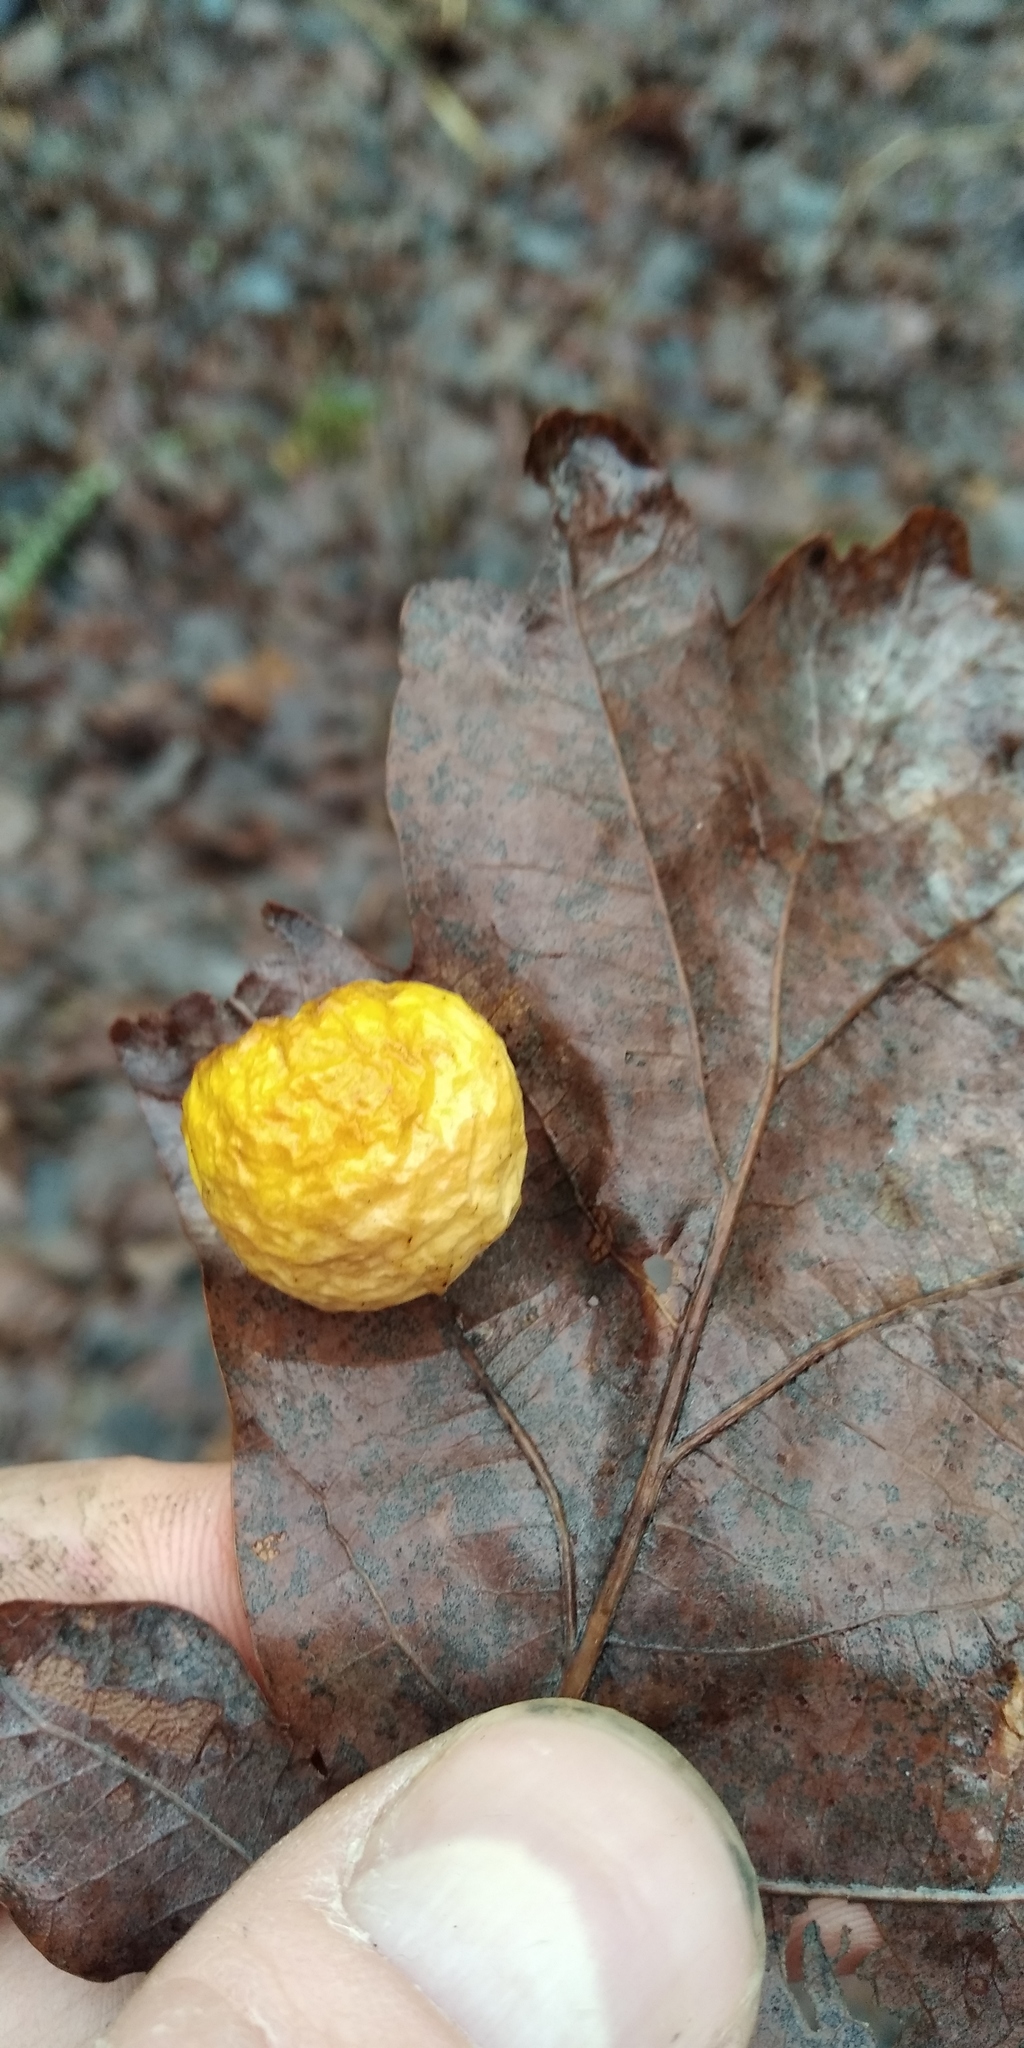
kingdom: Animalia
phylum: Arthropoda
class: Insecta
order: Hymenoptera
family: Cynipidae
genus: Cynips
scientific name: Cynips quercusfolii
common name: Cherry gall
